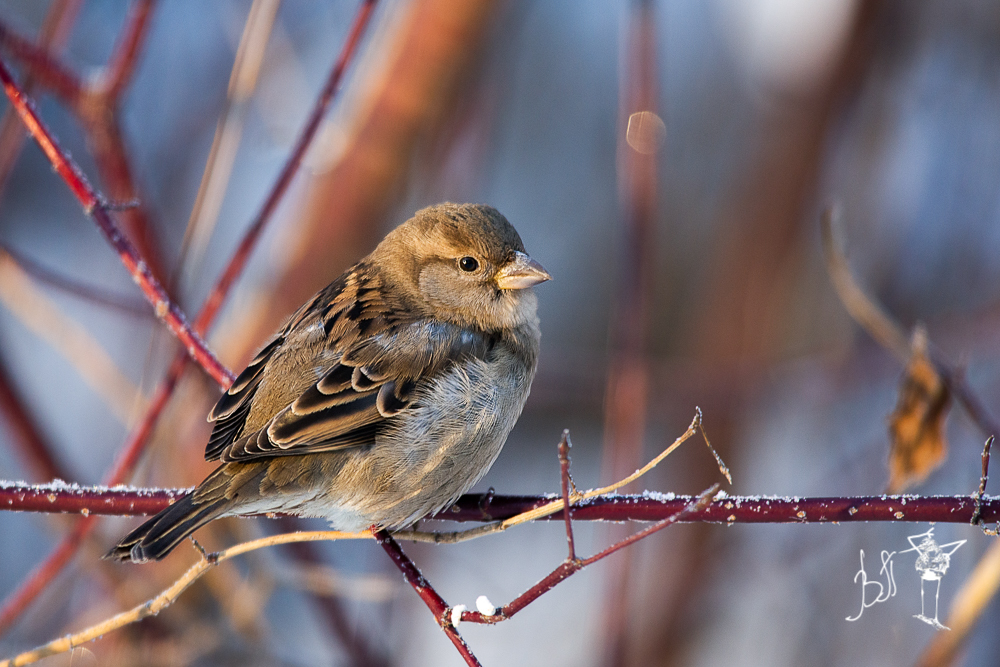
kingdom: Animalia
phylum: Chordata
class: Aves
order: Passeriformes
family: Passeridae
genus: Passer
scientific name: Passer domesticus
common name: House sparrow
